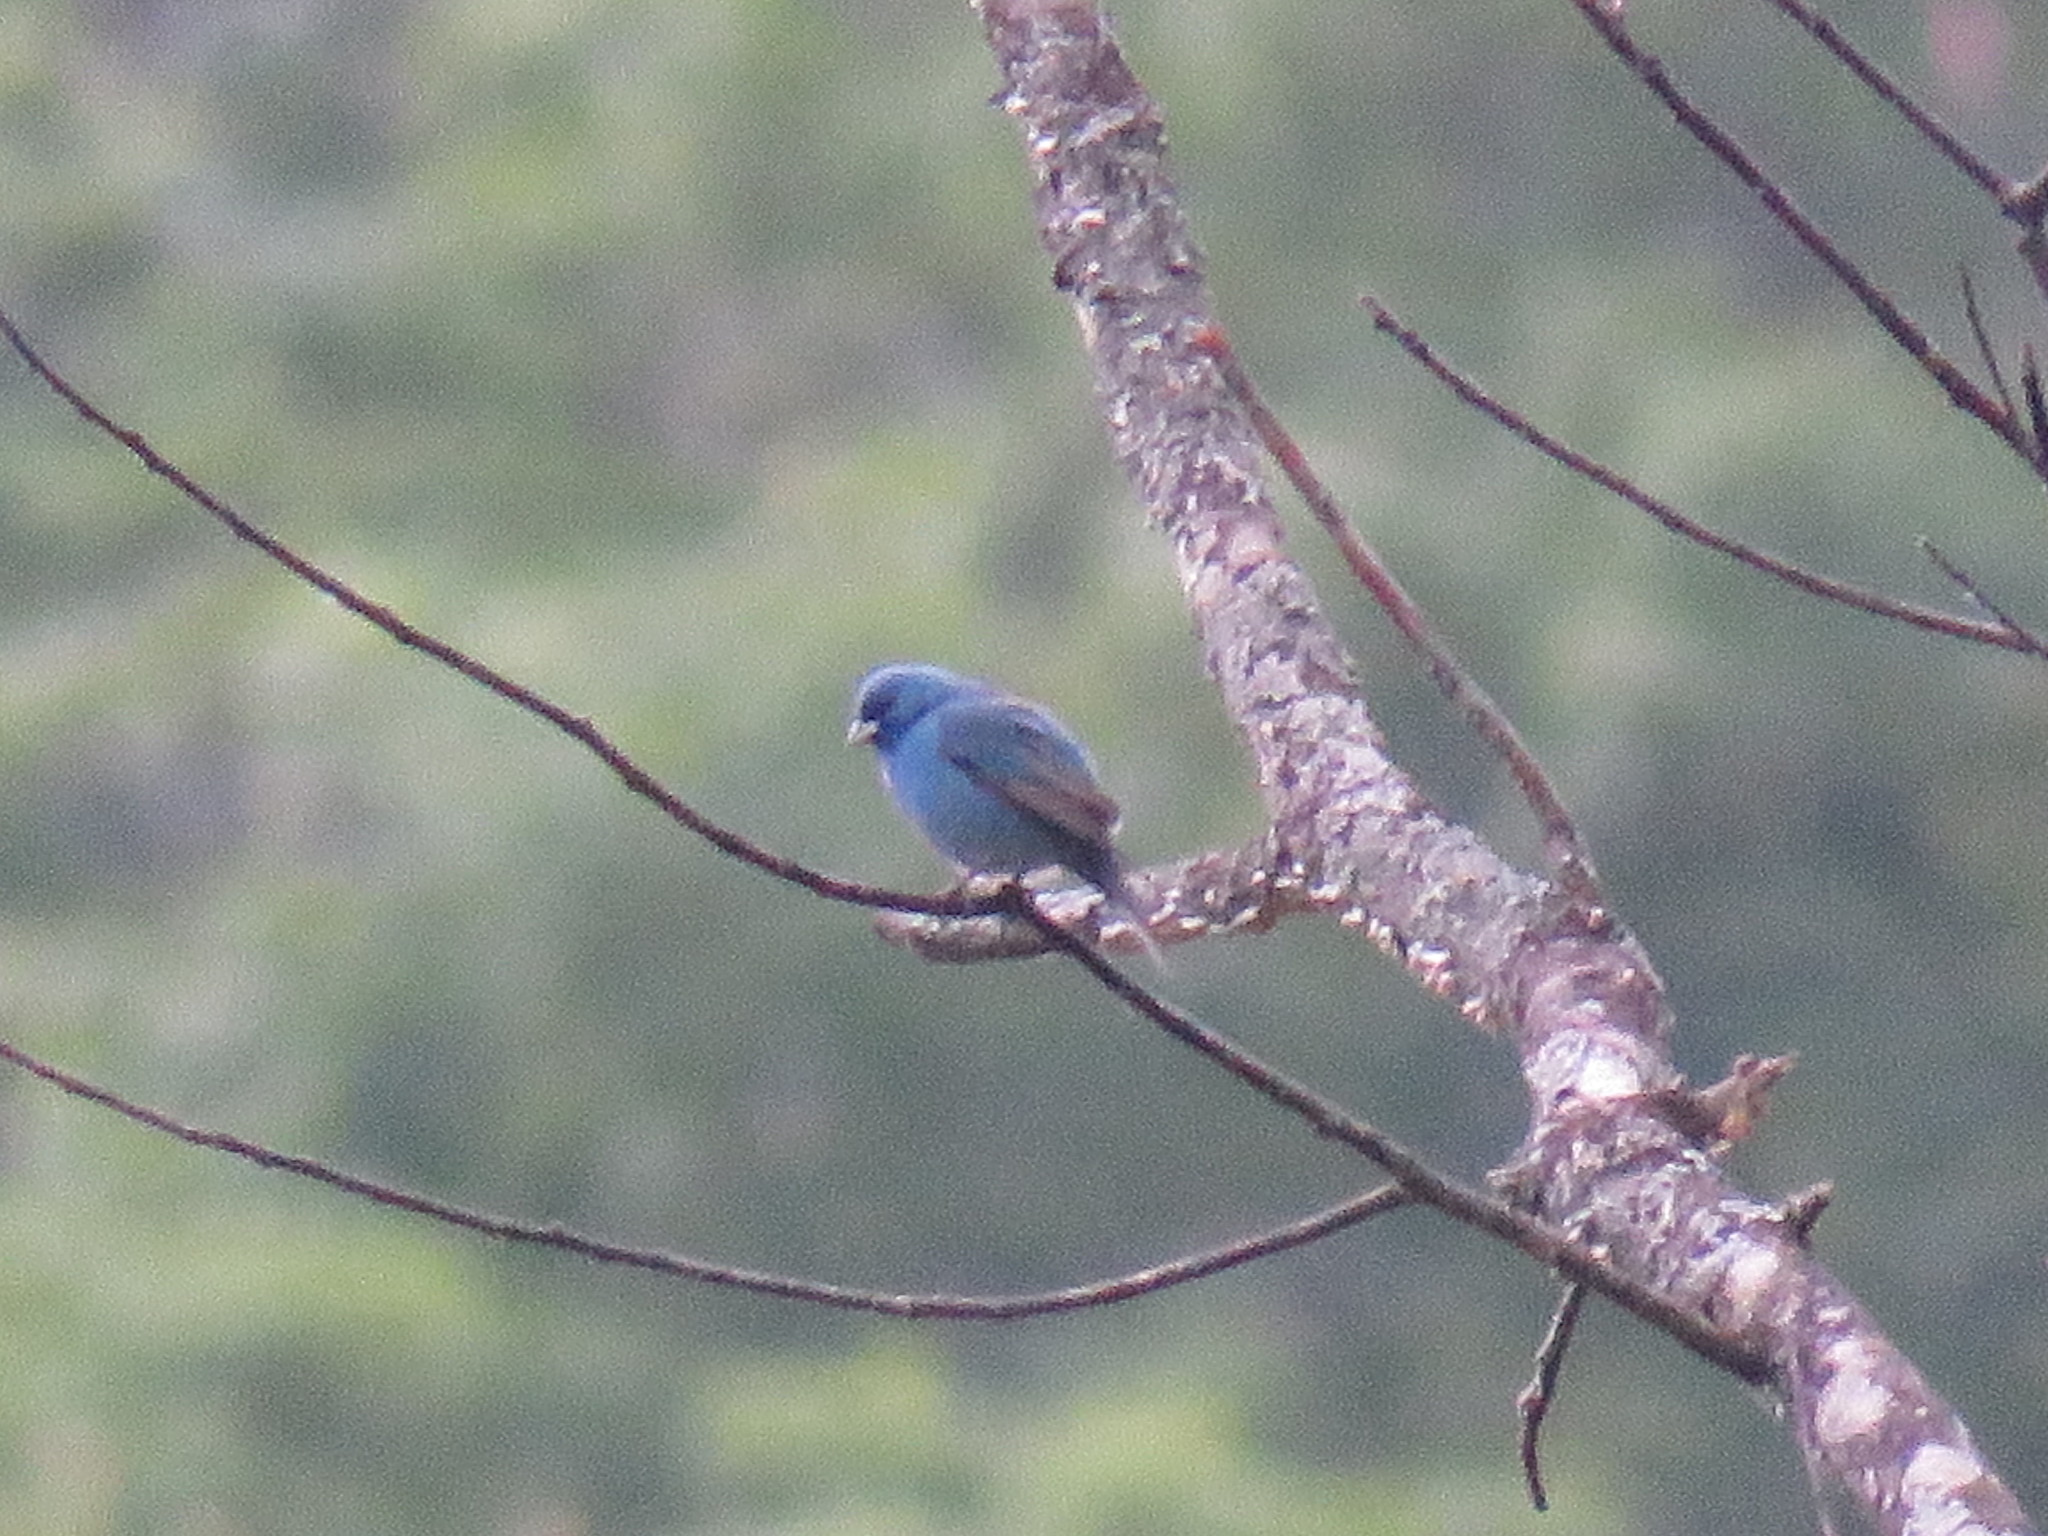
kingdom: Animalia
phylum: Chordata
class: Aves
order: Passeriformes
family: Cardinalidae
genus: Passerina
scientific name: Passerina cyanea
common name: Indigo bunting
